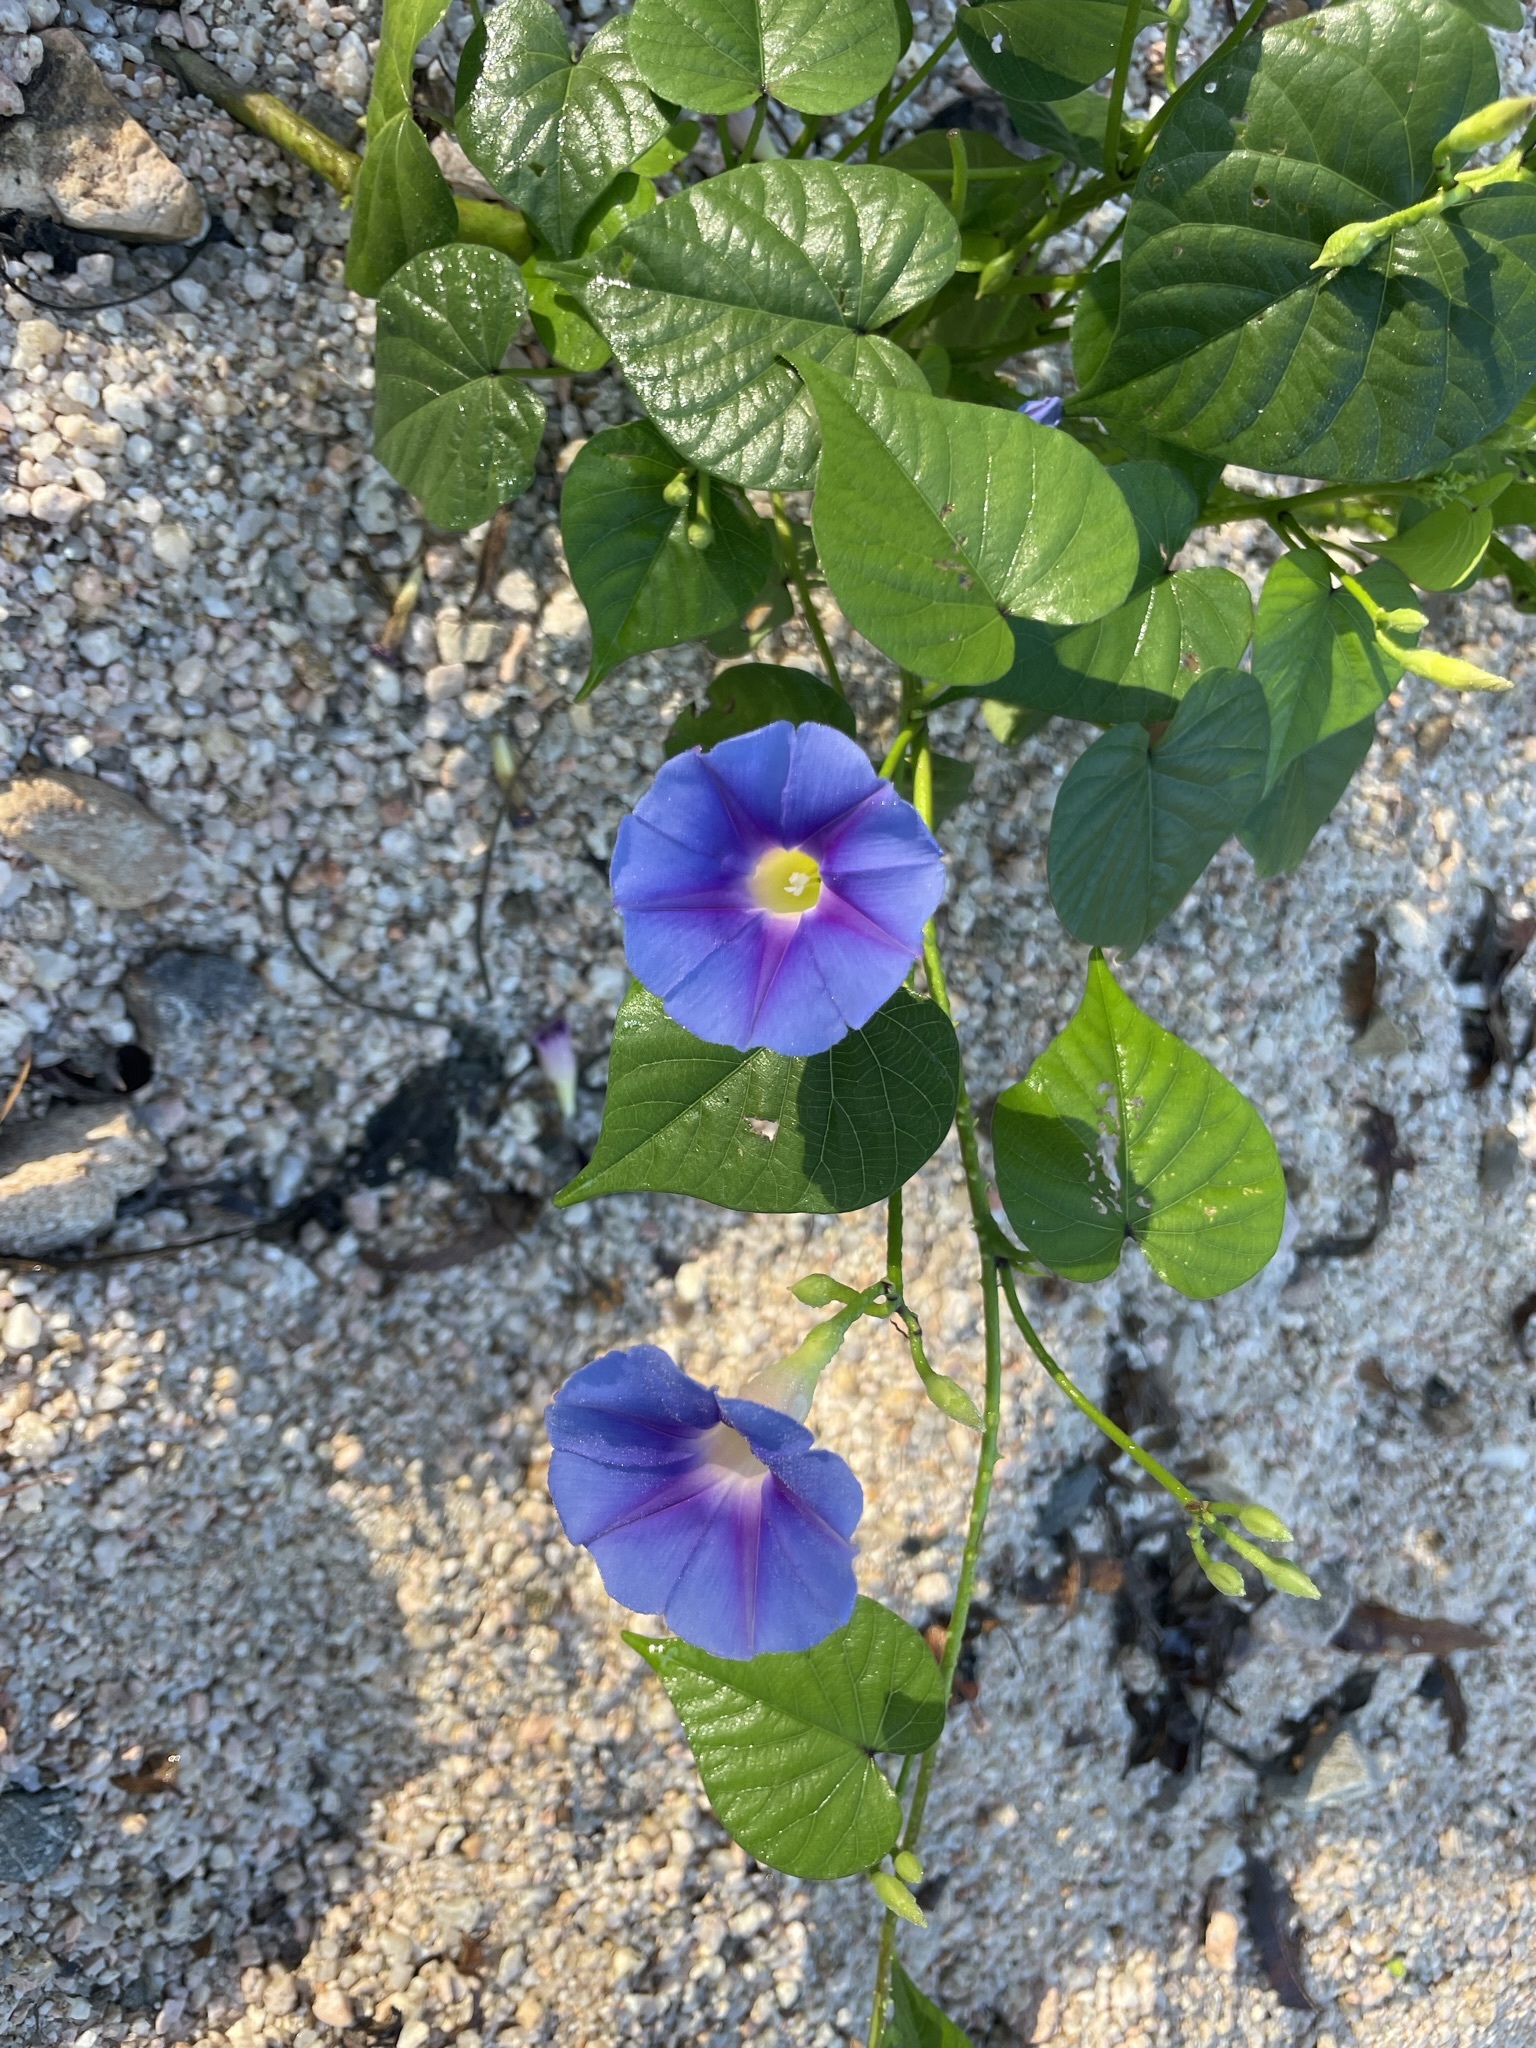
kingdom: Plantae
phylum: Tracheophyta
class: Magnoliopsida
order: Solanales
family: Convolvulaceae
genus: Ipomoea
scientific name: Ipomoea parasitica
